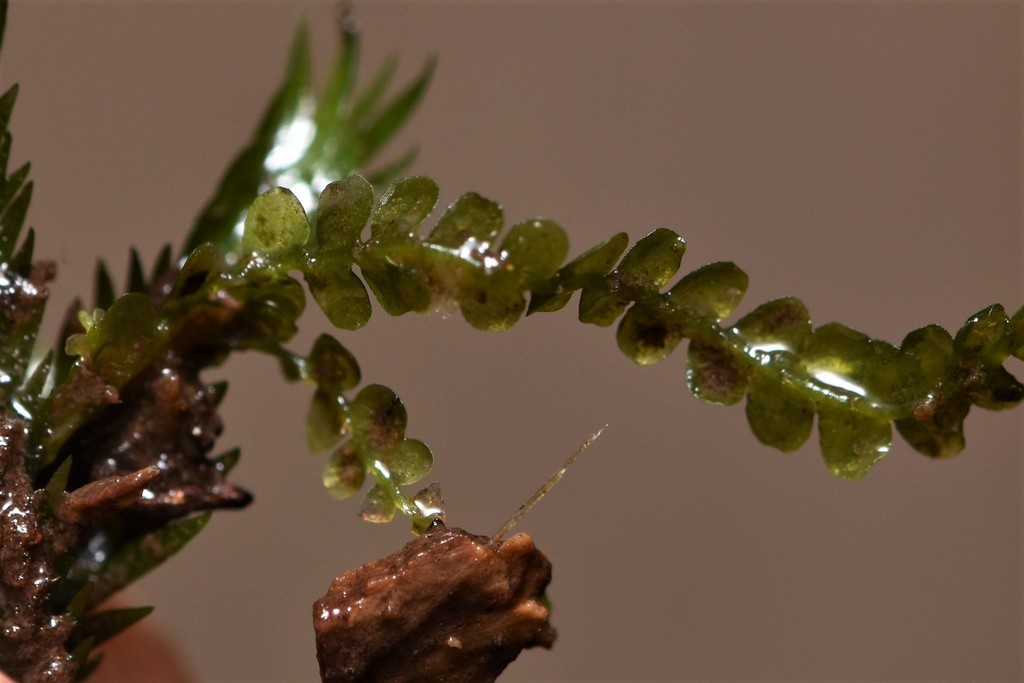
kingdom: Plantae
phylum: Marchantiophyta
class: Jungermanniopsida
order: Jungermanniales
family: Lophocoleaceae
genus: Chiloscyphus
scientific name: Chiloscyphus polyanthos
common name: Square-leaved crestwort
